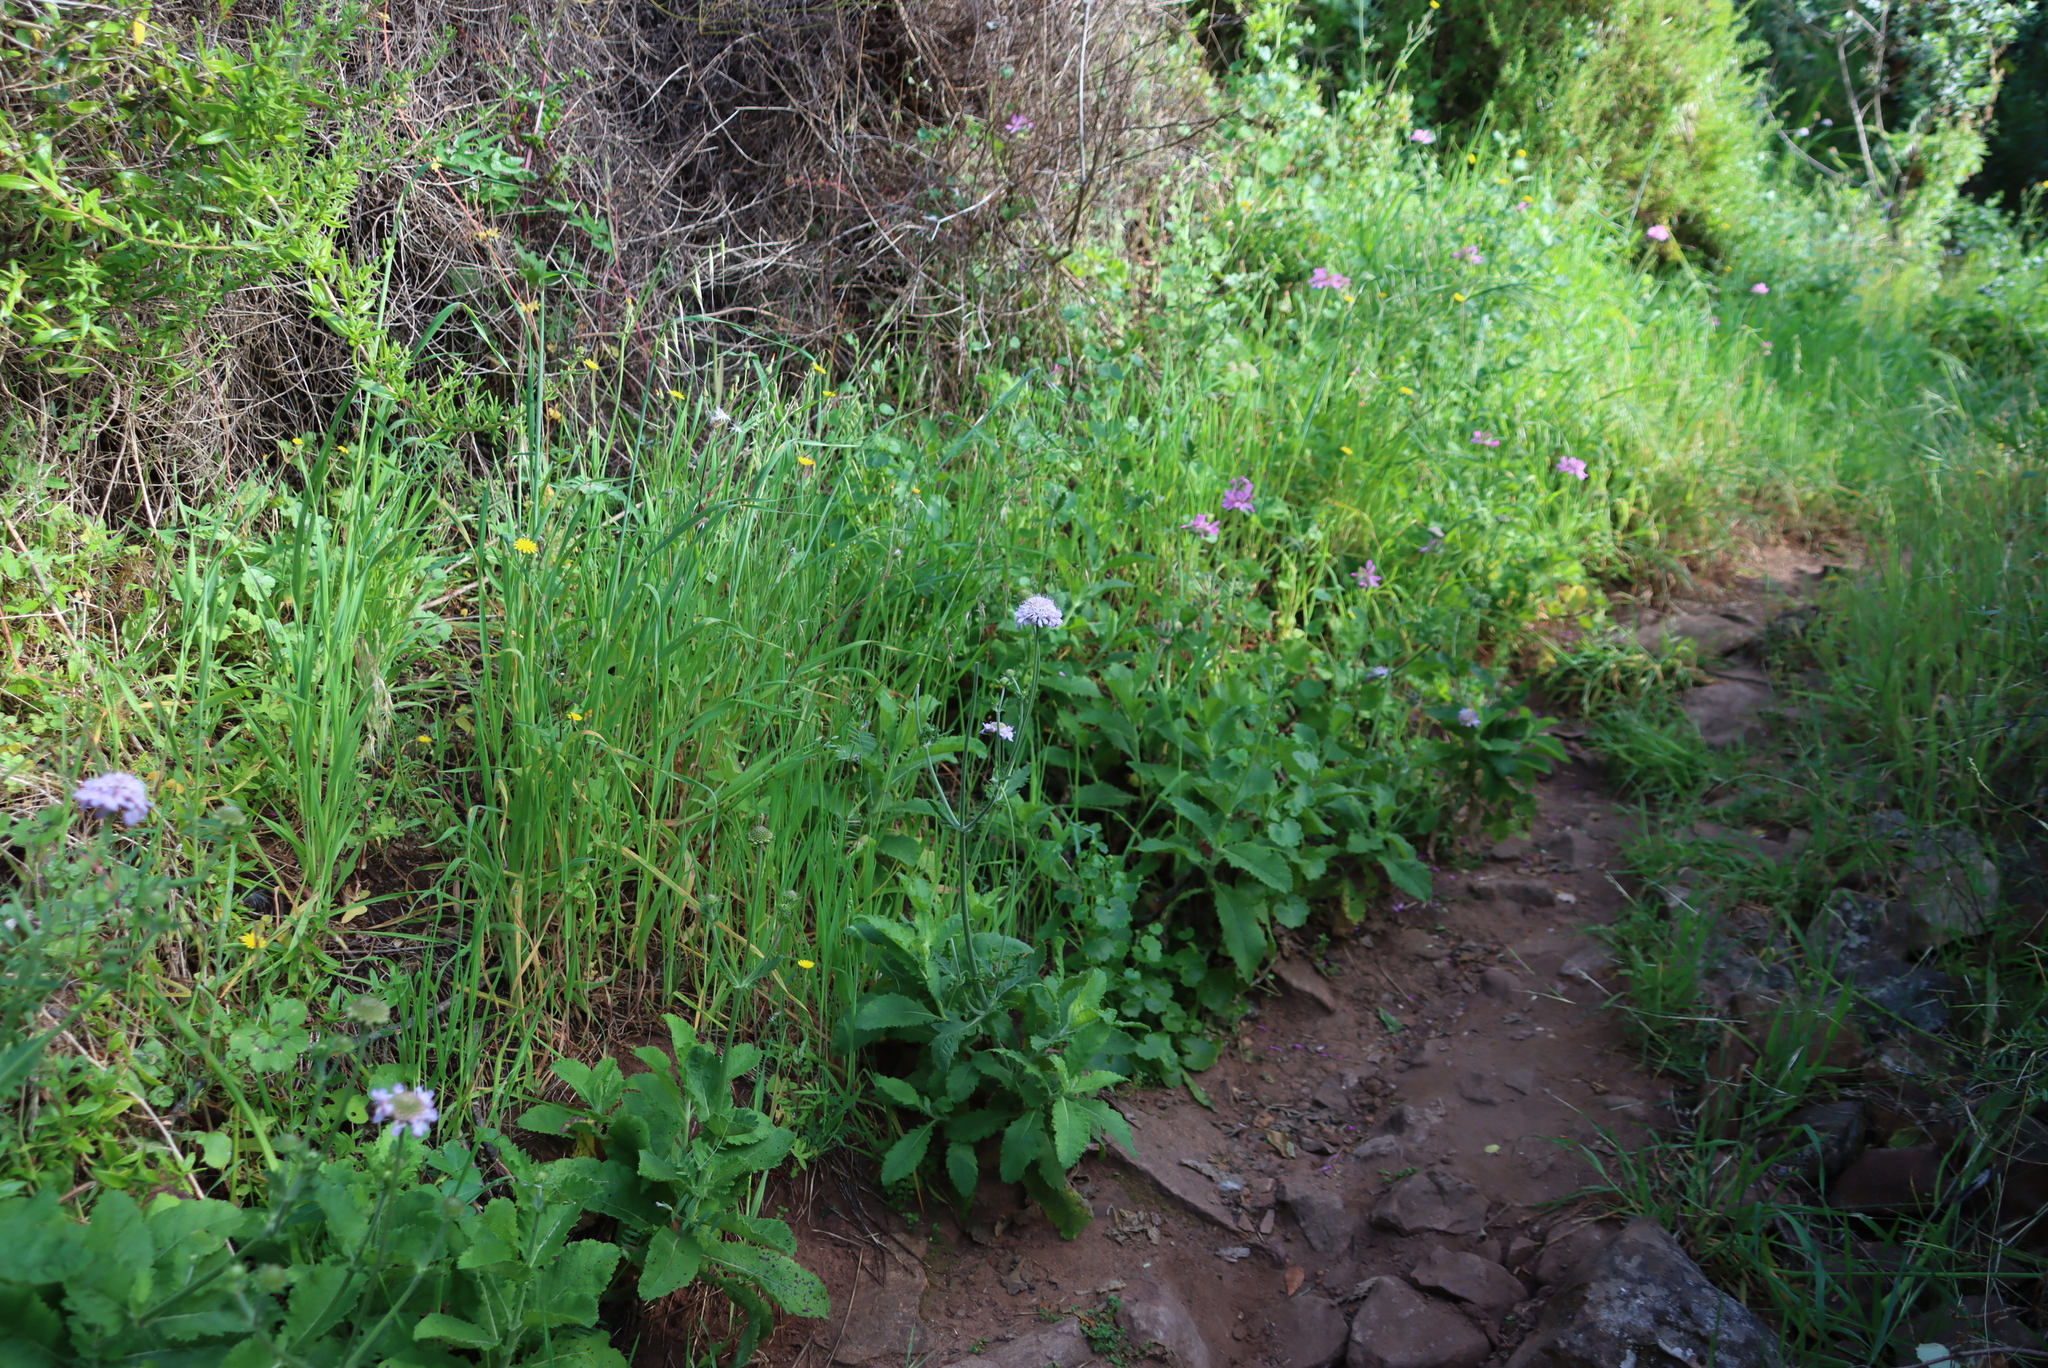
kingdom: Plantae
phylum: Tracheophyta
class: Magnoliopsida
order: Dipsacales
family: Caprifoliaceae
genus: Scabiosa
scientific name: Scabiosa africana
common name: Cape scabious
